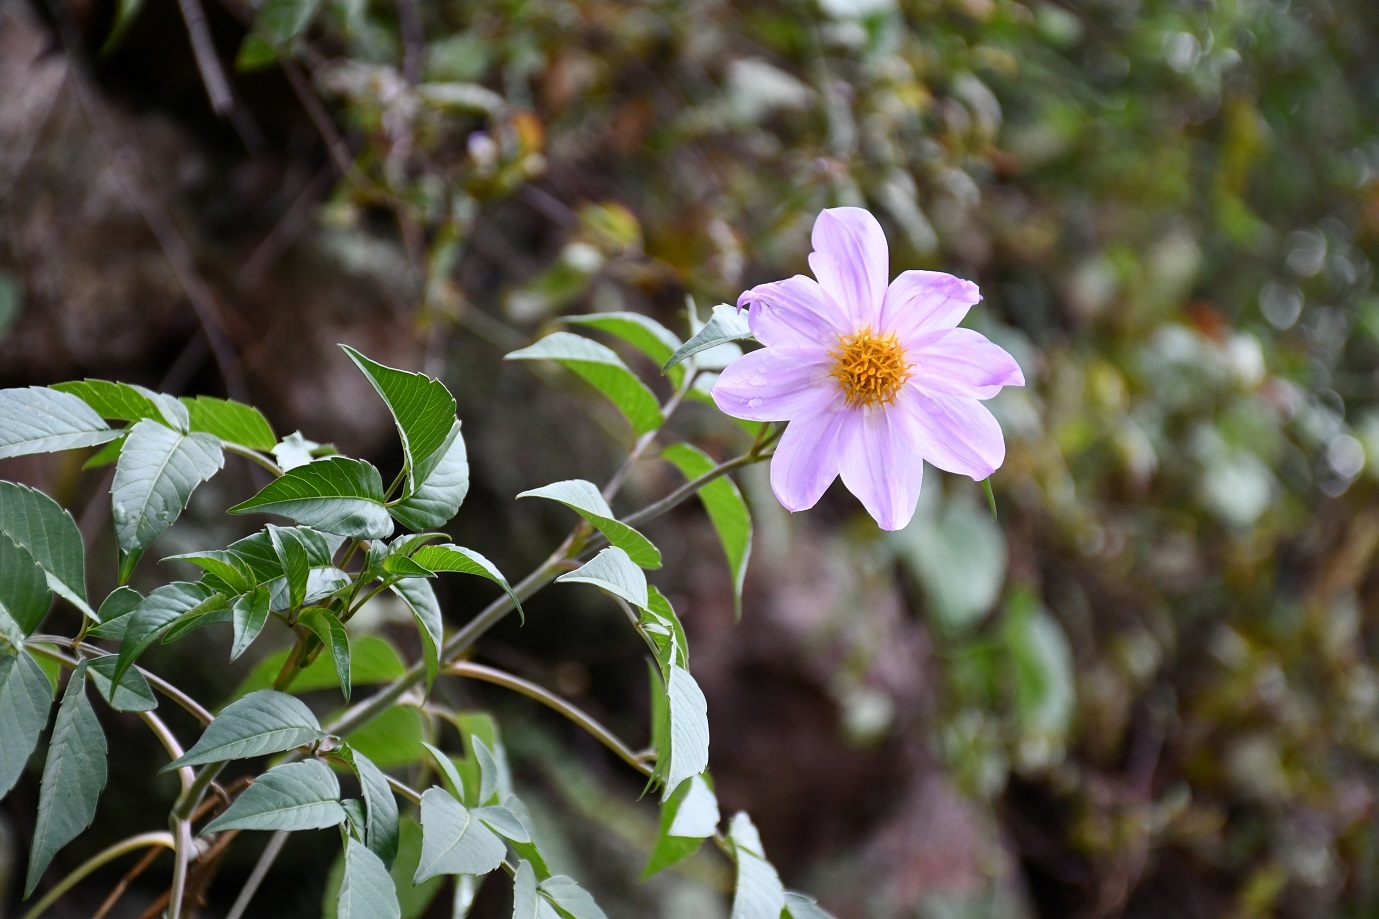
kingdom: Plantae
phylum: Tracheophyta
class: Magnoliopsida
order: Asterales
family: Asteraceae
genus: Dahlia
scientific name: Dahlia pteropoda
